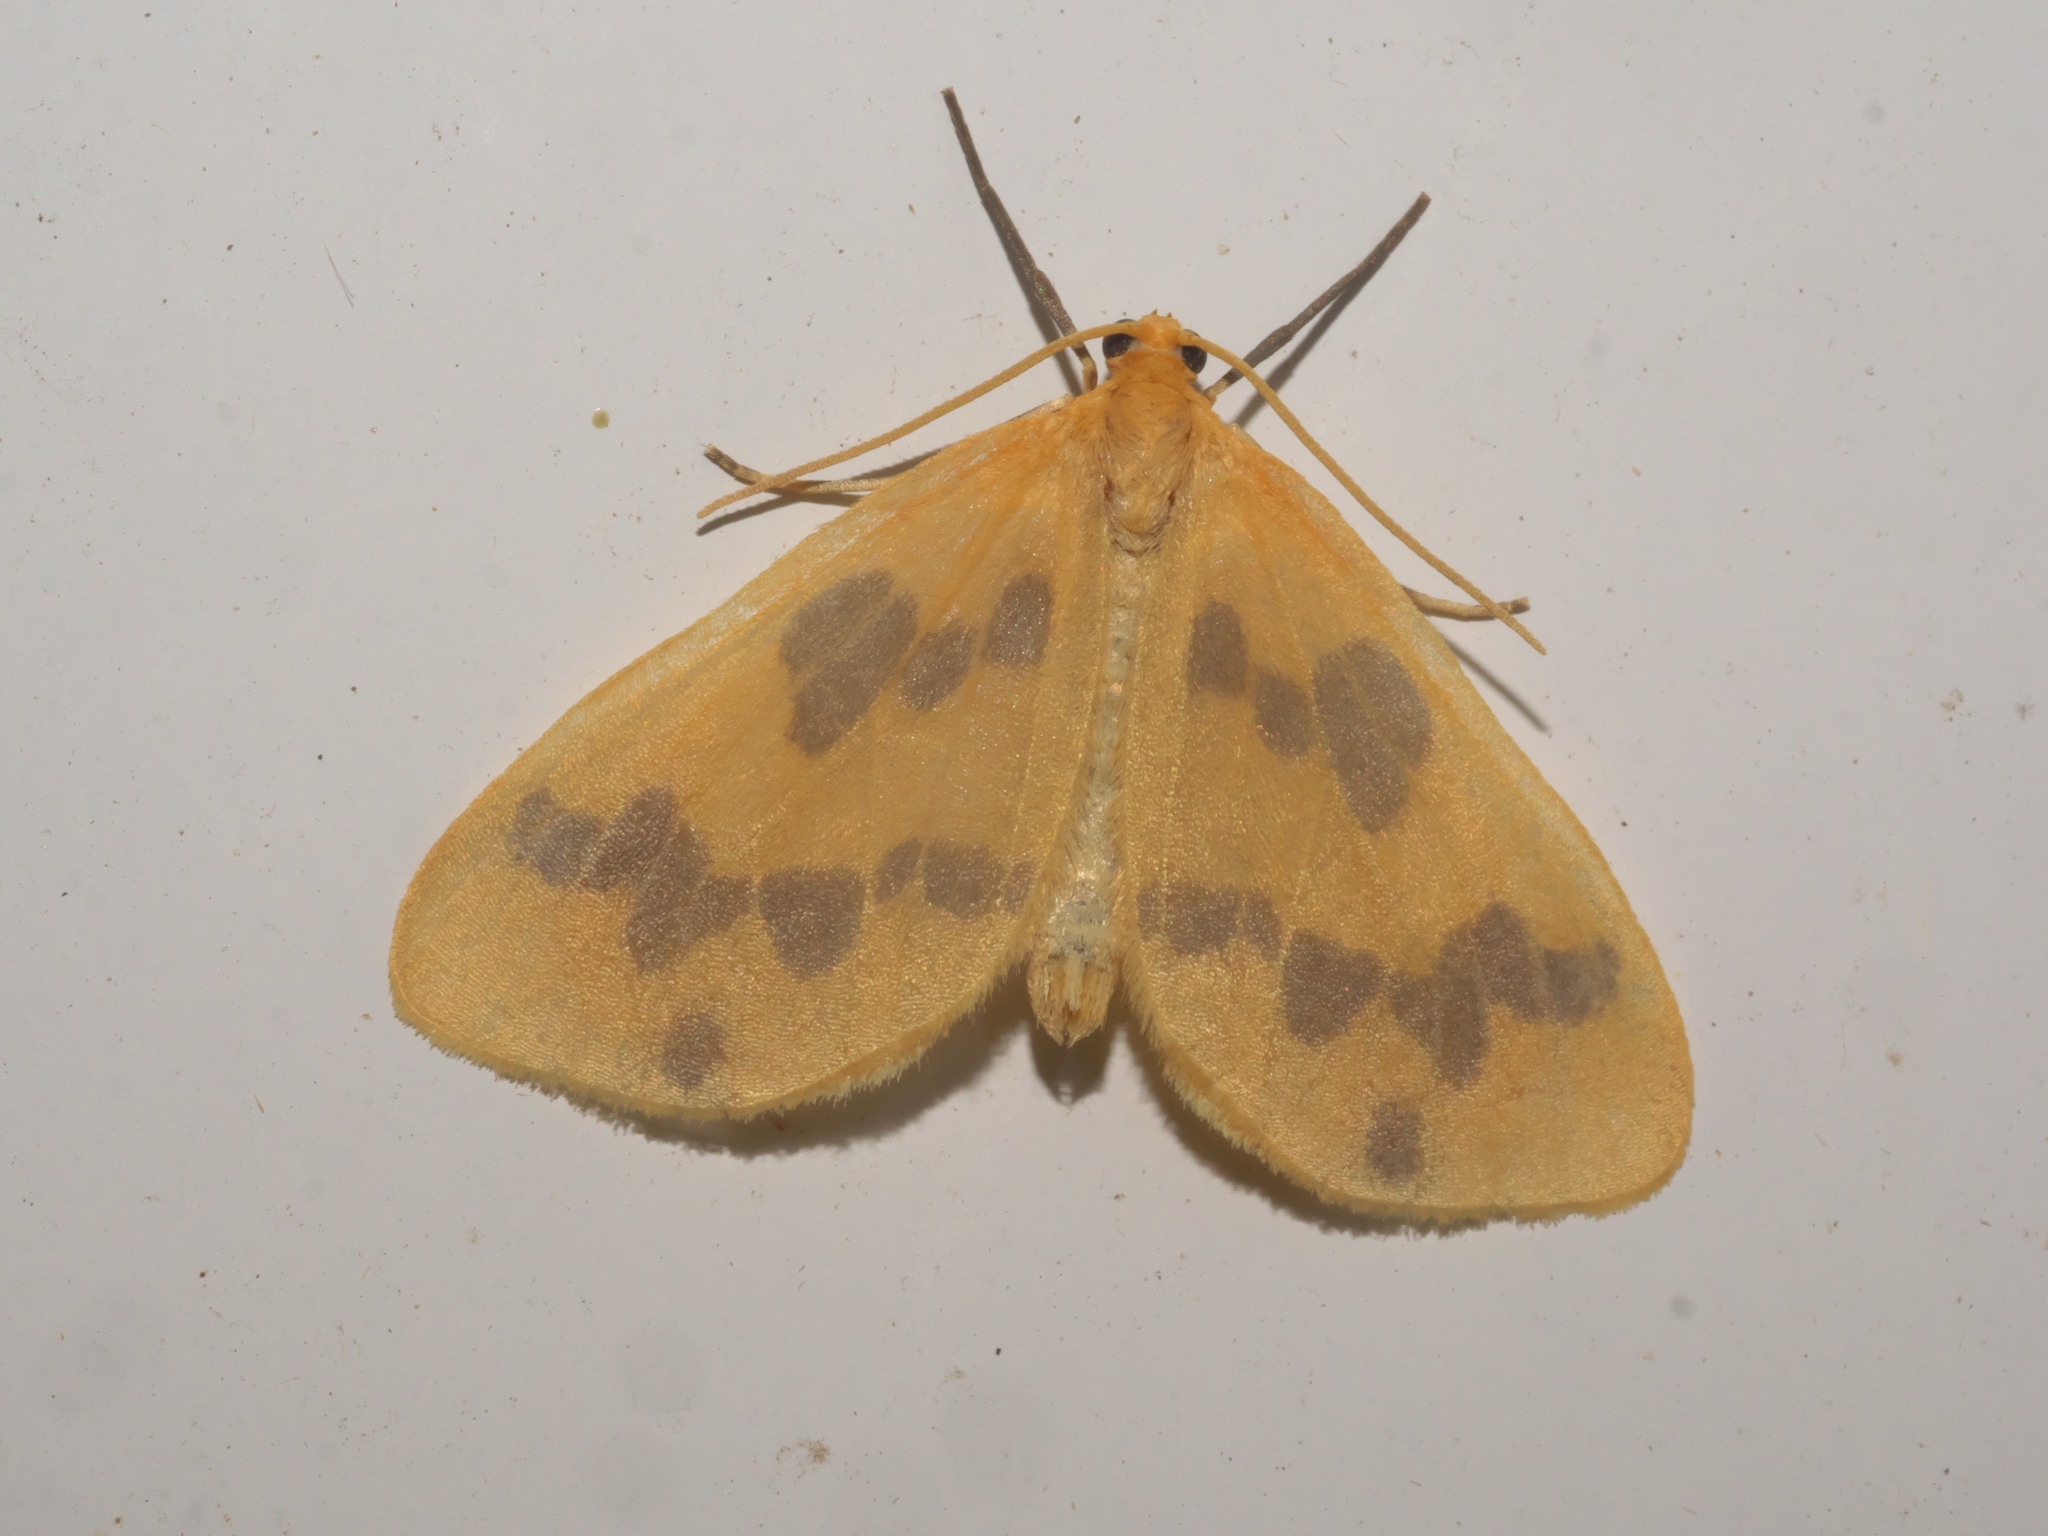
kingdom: Animalia
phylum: Arthropoda
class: Insecta
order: Lepidoptera
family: Geometridae
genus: Eubaphe
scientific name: Eubaphe mendica
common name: Beggar
